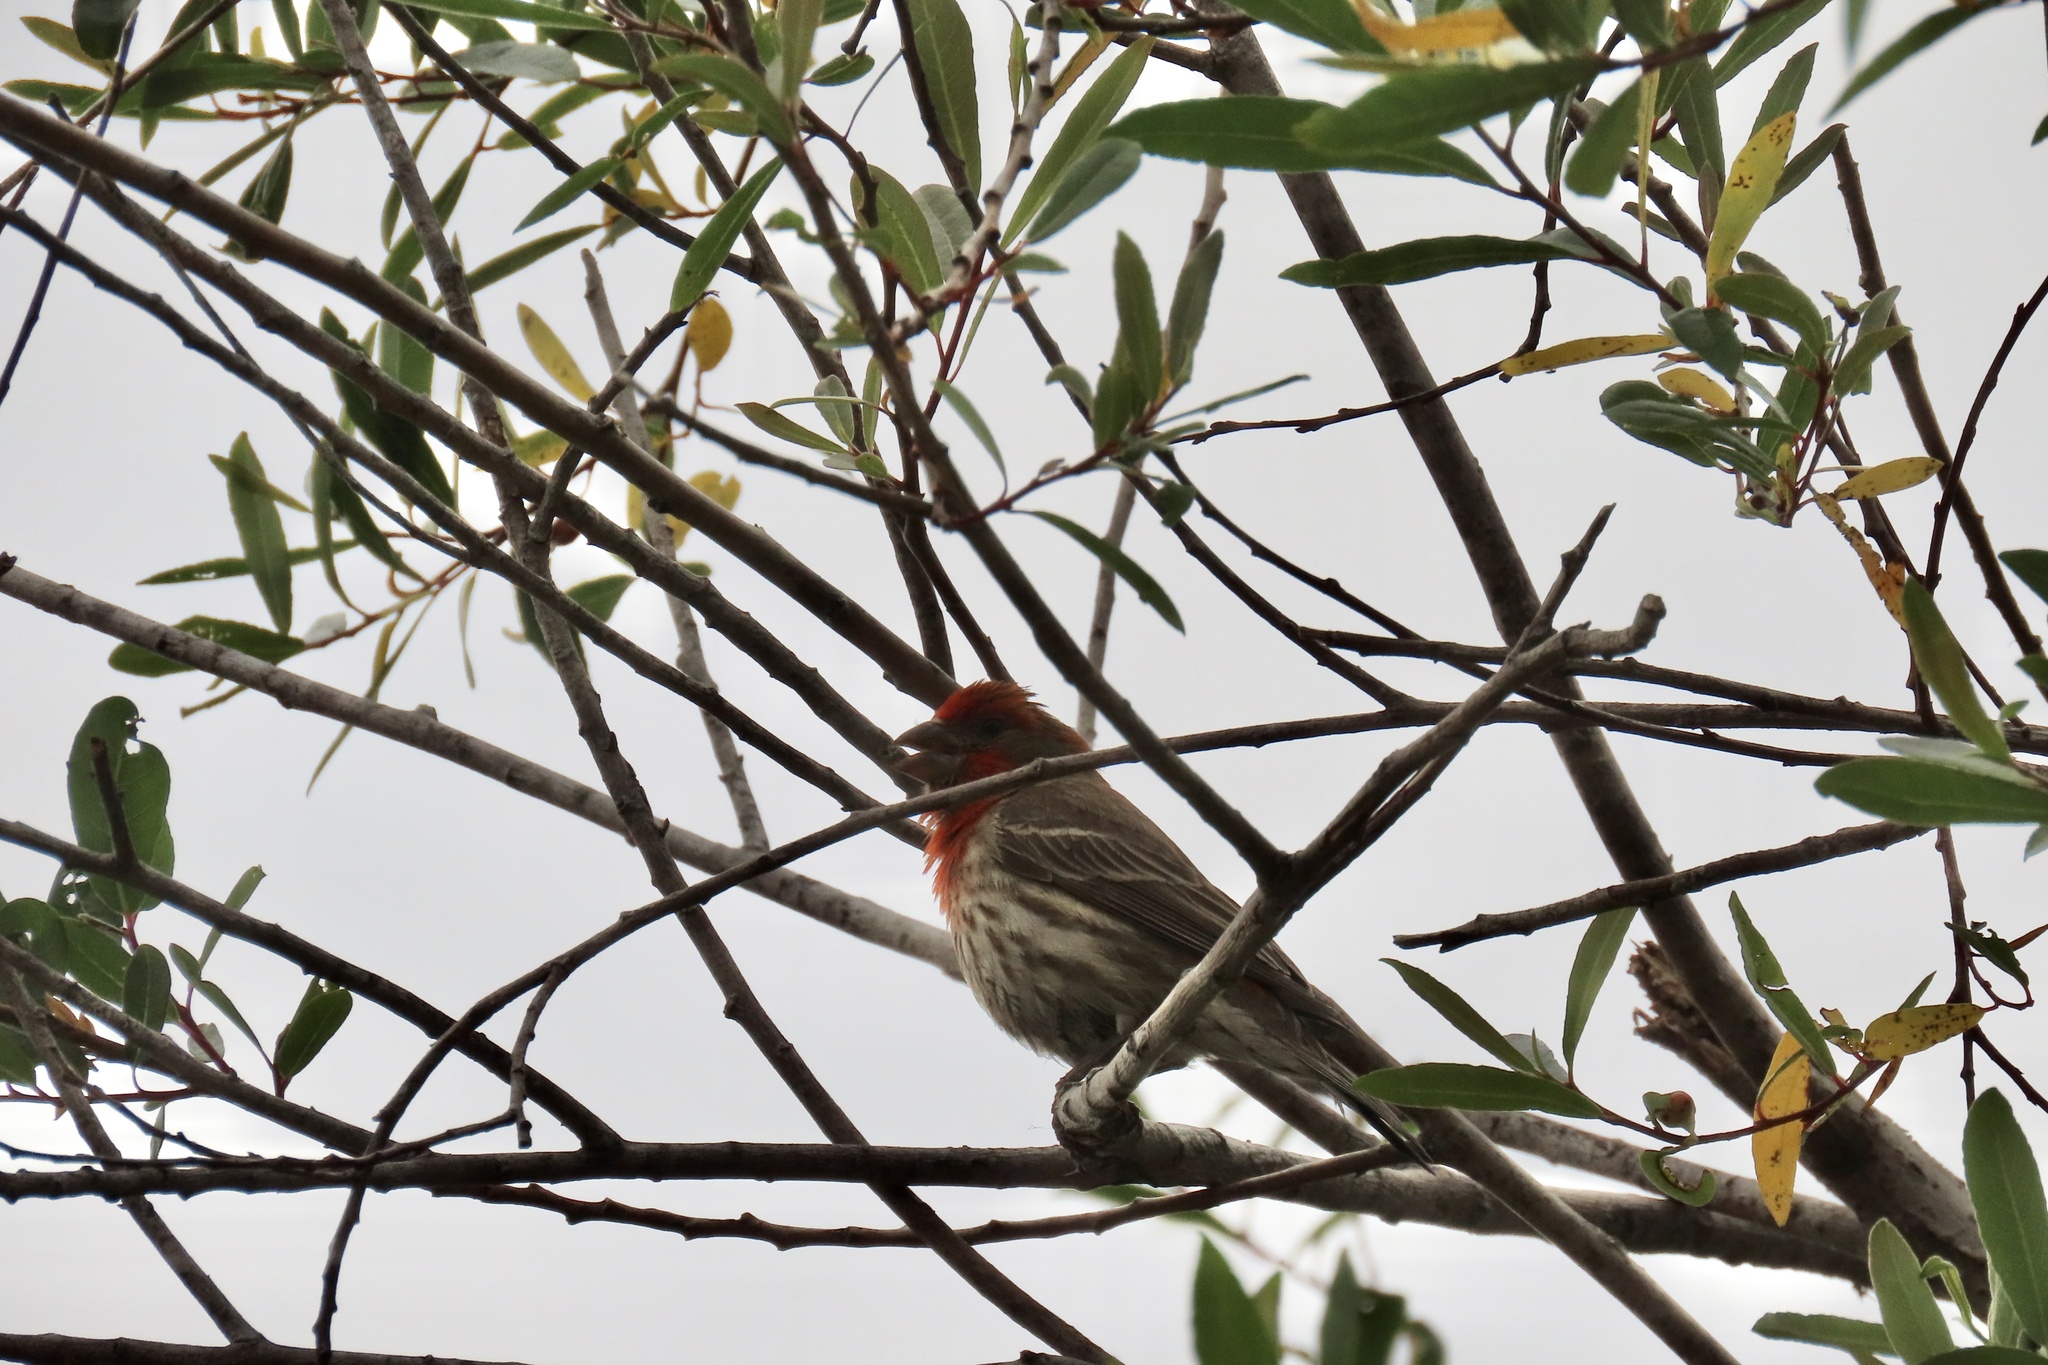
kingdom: Animalia
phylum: Chordata
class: Aves
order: Passeriformes
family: Fringillidae
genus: Haemorhous
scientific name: Haemorhous mexicanus
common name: House finch
